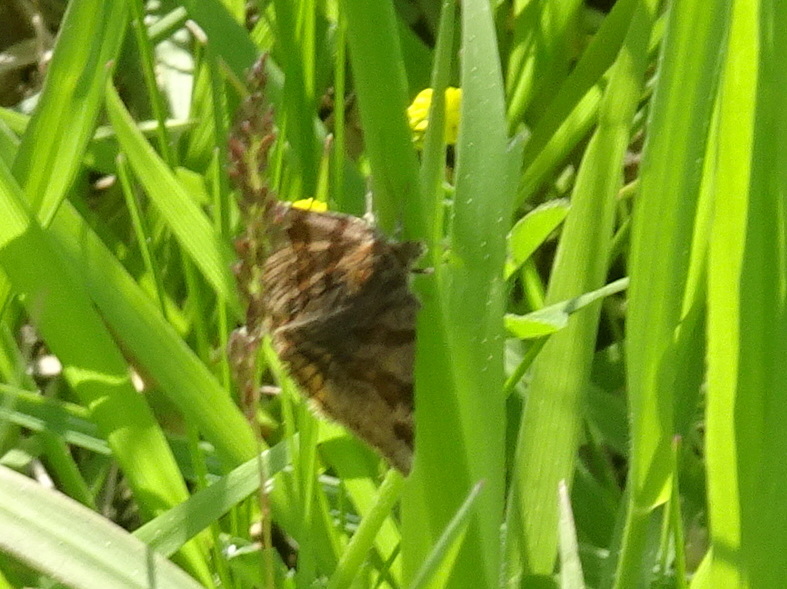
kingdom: Animalia
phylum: Arthropoda
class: Insecta
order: Lepidoptera
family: Erebidae
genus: Euclidia
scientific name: Euclidia glyphica
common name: Burnet companion
